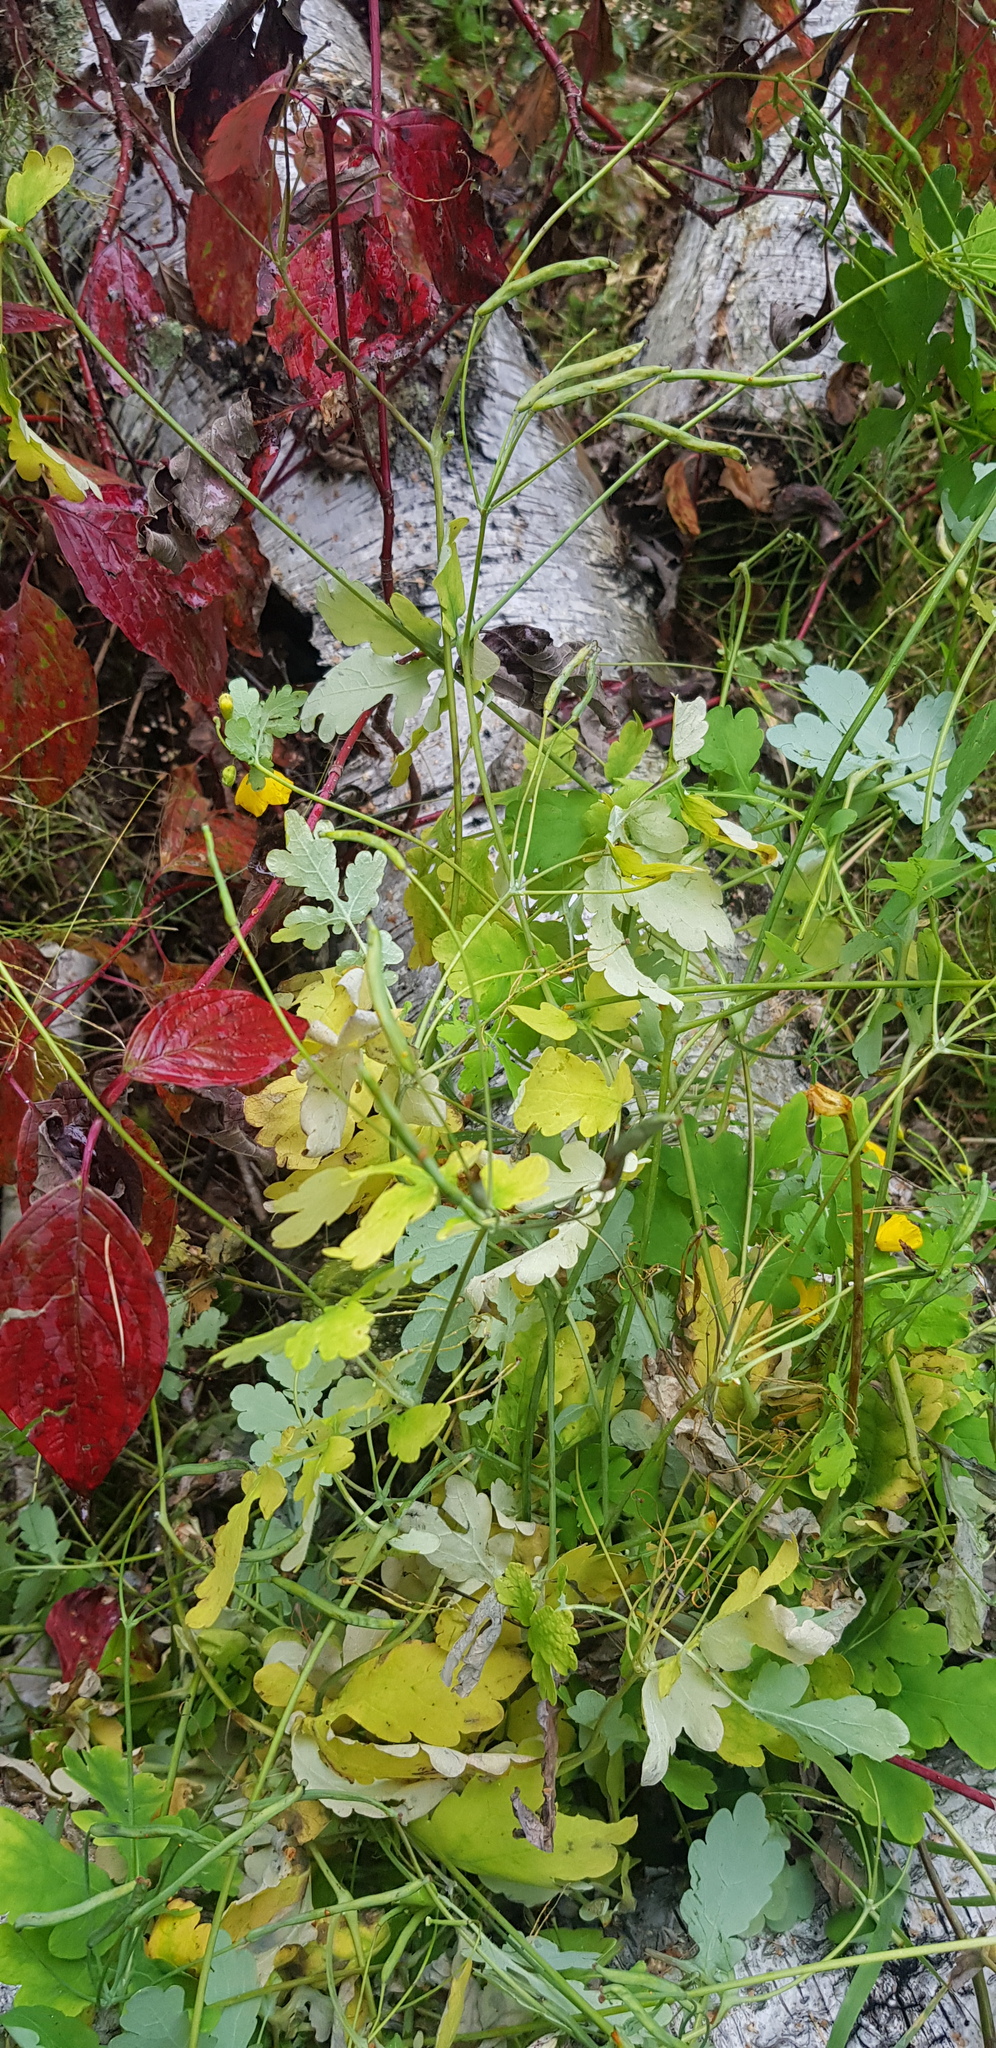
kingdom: Plantae
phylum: Tracheophyta
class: Magnoliopsida
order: Ranunculales
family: Papaveraceae
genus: Chelidonium
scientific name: Chelidonium majus
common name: Greater celandine
